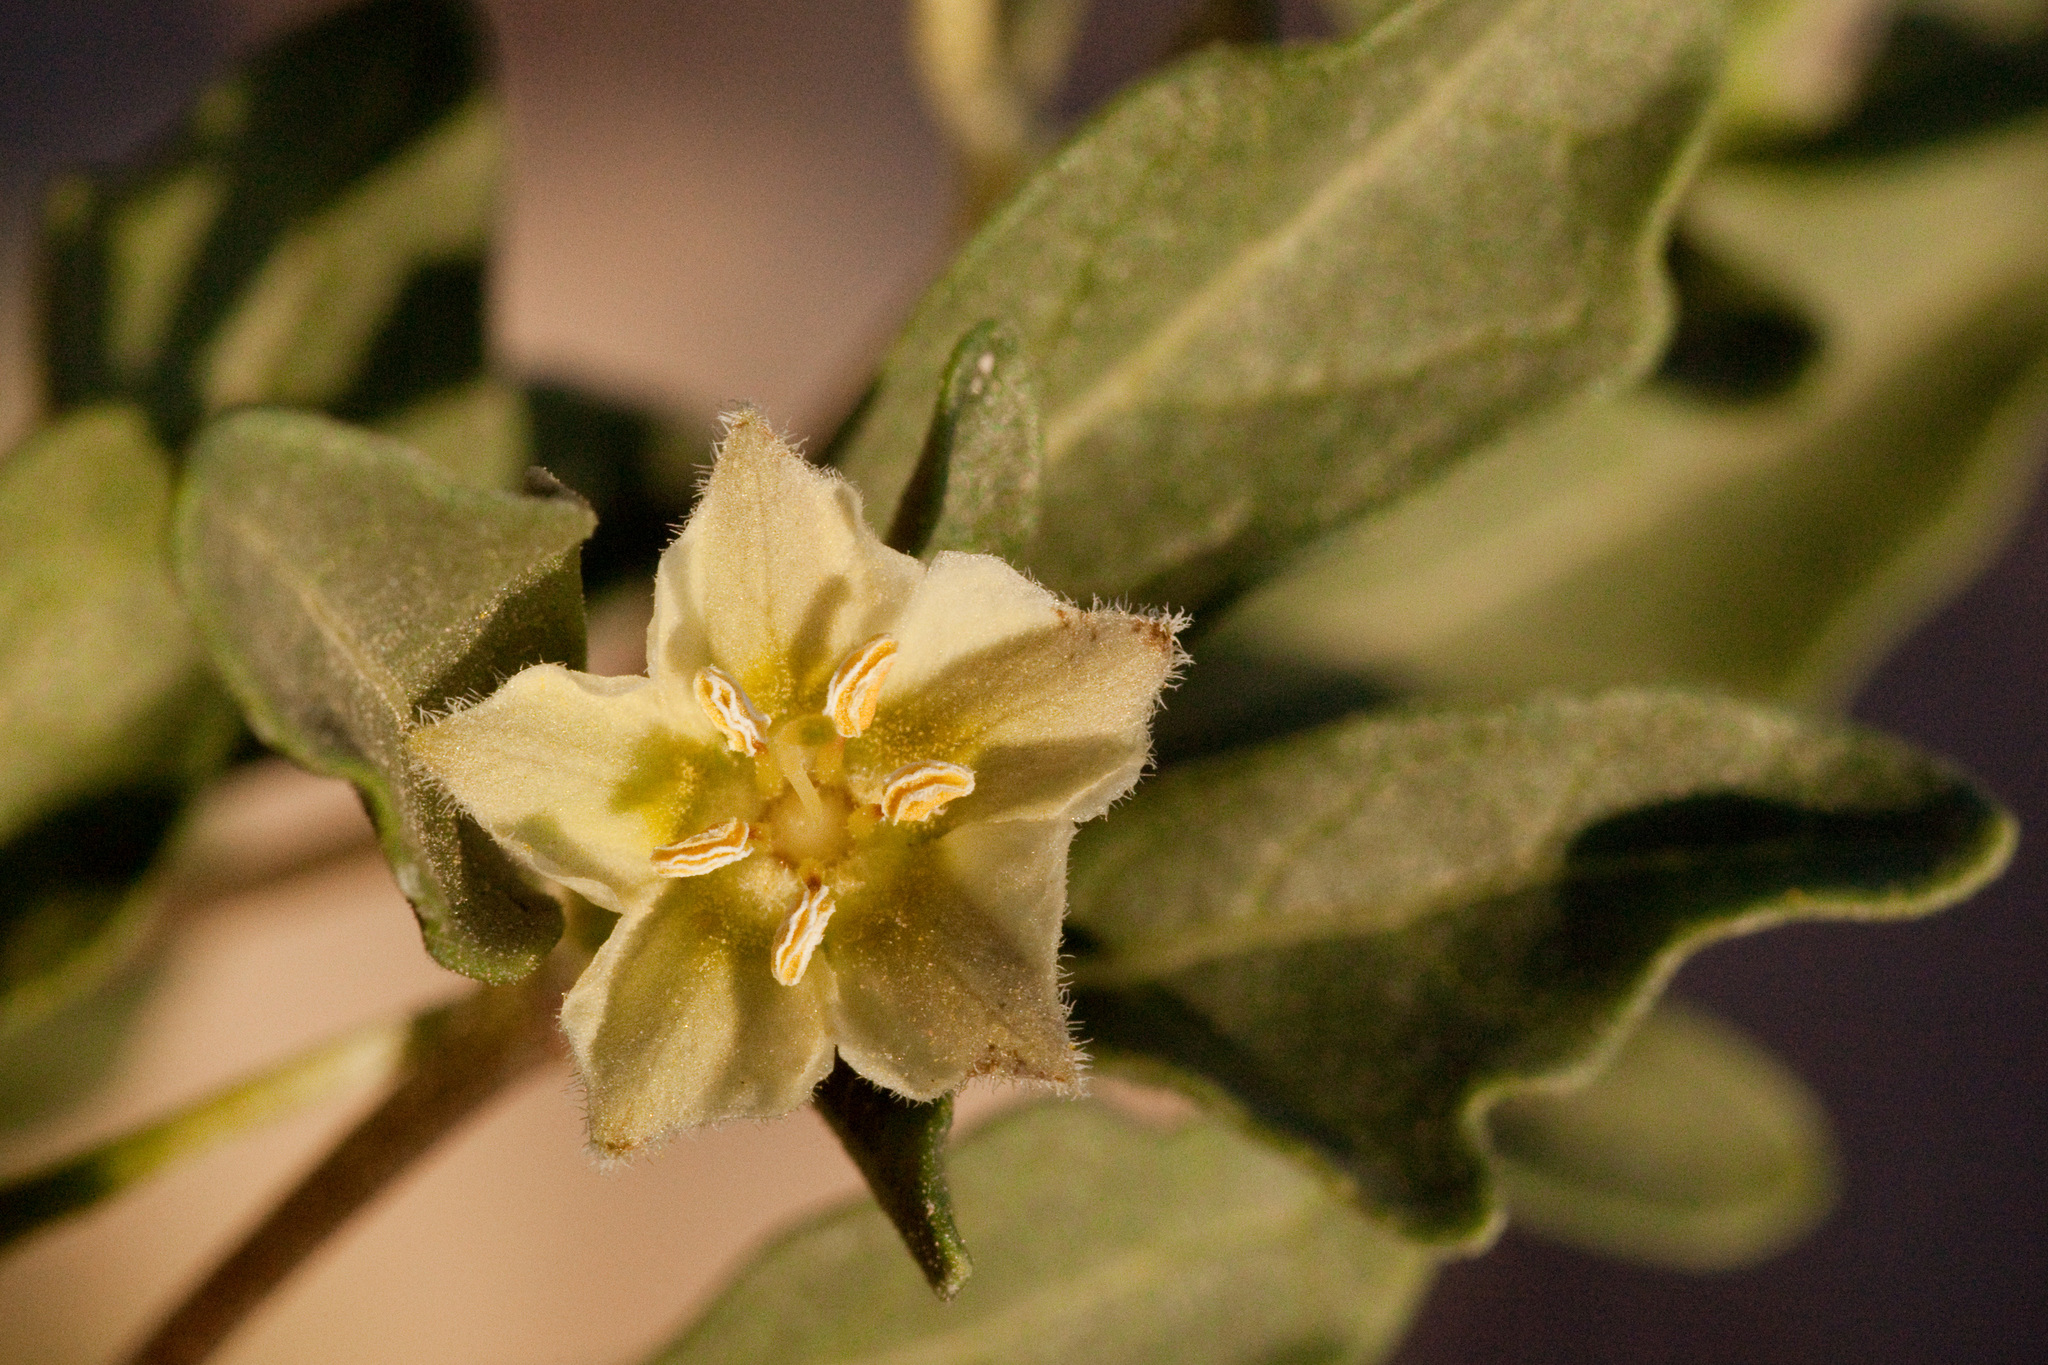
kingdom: Plantae
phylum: Tracheophyta
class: Magnoliopsida
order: Solanales
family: Solanaceae
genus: Chamaesaracha
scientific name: Chamaesaracha pallida
